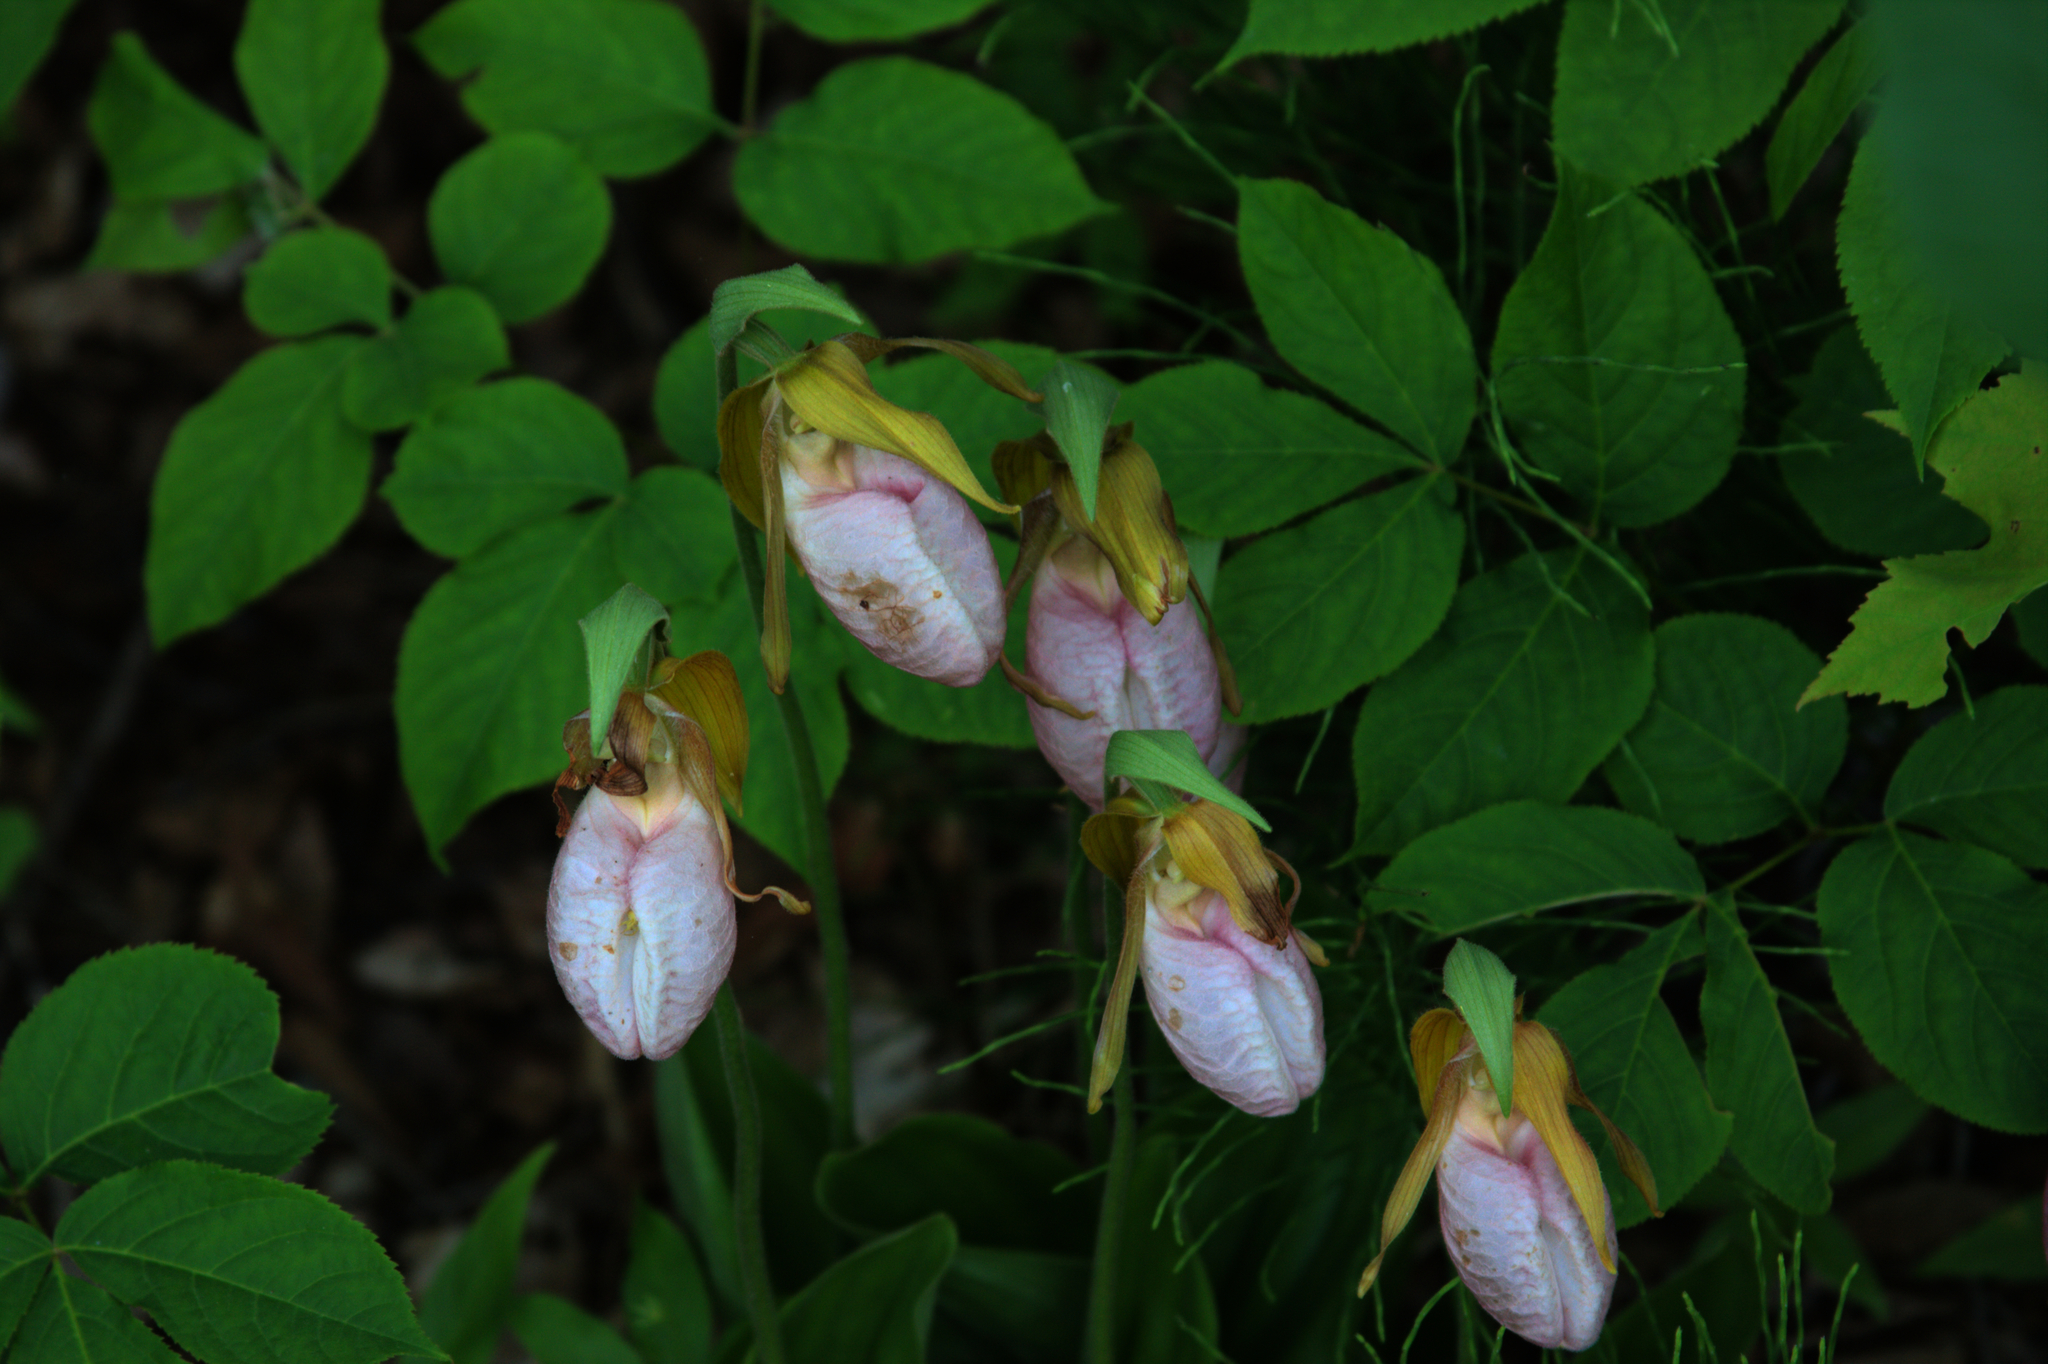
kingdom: Plantae
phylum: Tracheophyta
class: Liliopsida
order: Asparagales
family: Orchidaceae
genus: Cypripedium
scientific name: Cypripedium acaule
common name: Pink lady's-slipper
